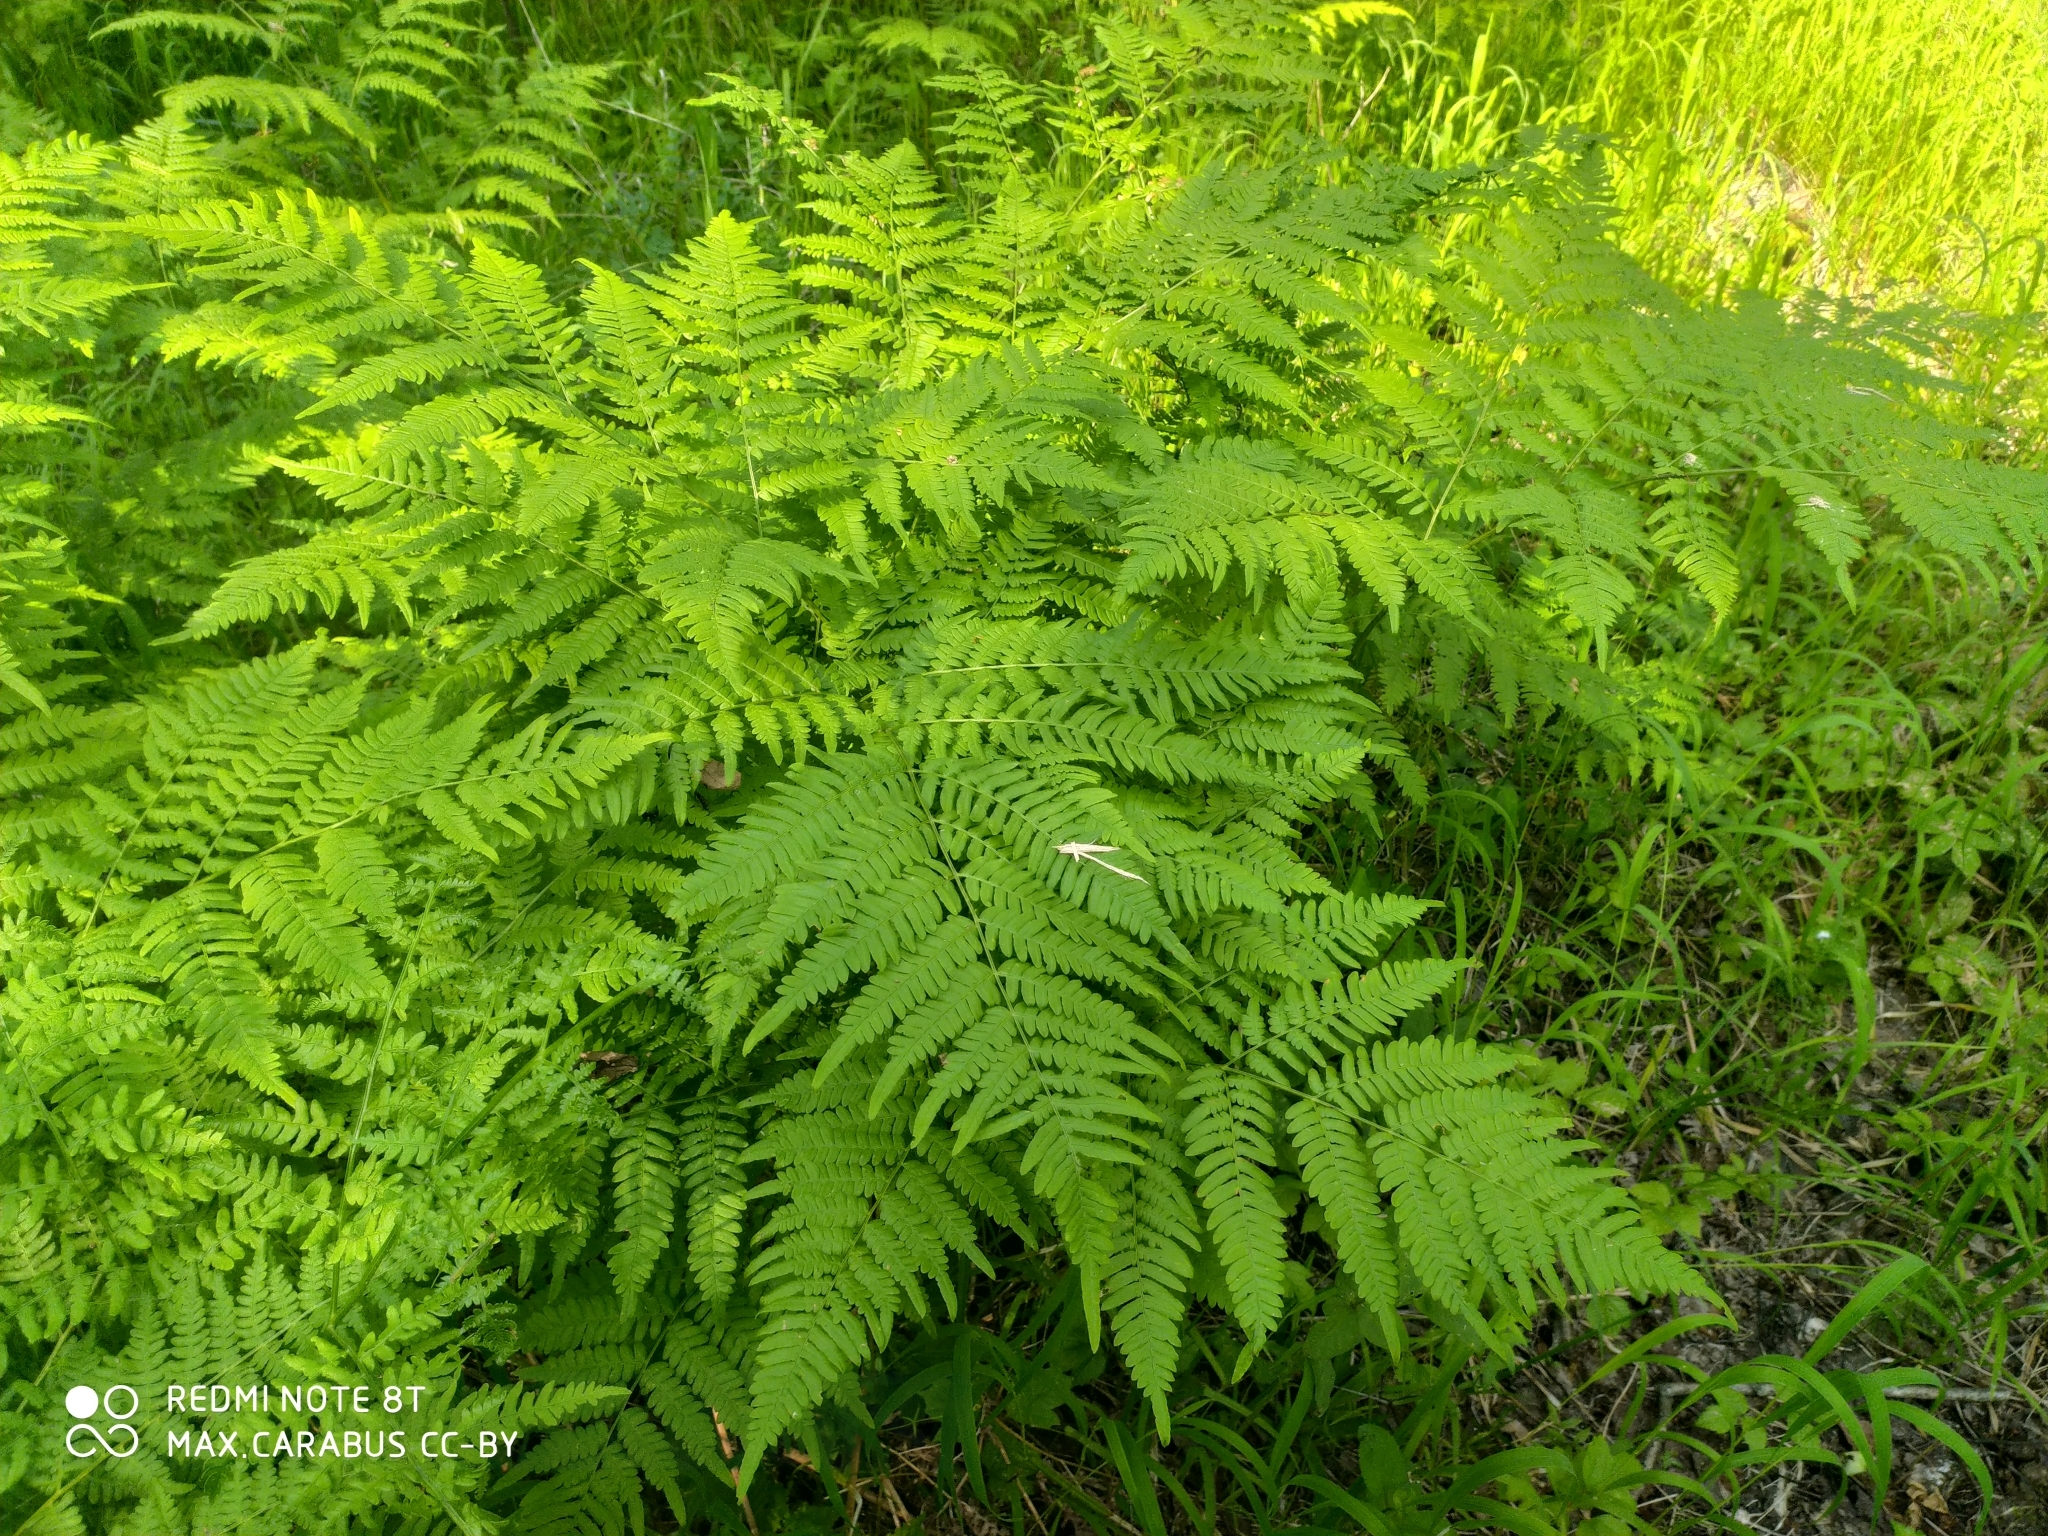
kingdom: Plantae
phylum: Tracheophyta
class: Polypodiopsida
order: Polypodiales
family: Dennstaedtiaceae
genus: Pteridium
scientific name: Pteridium aquilinum
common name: Bracken
